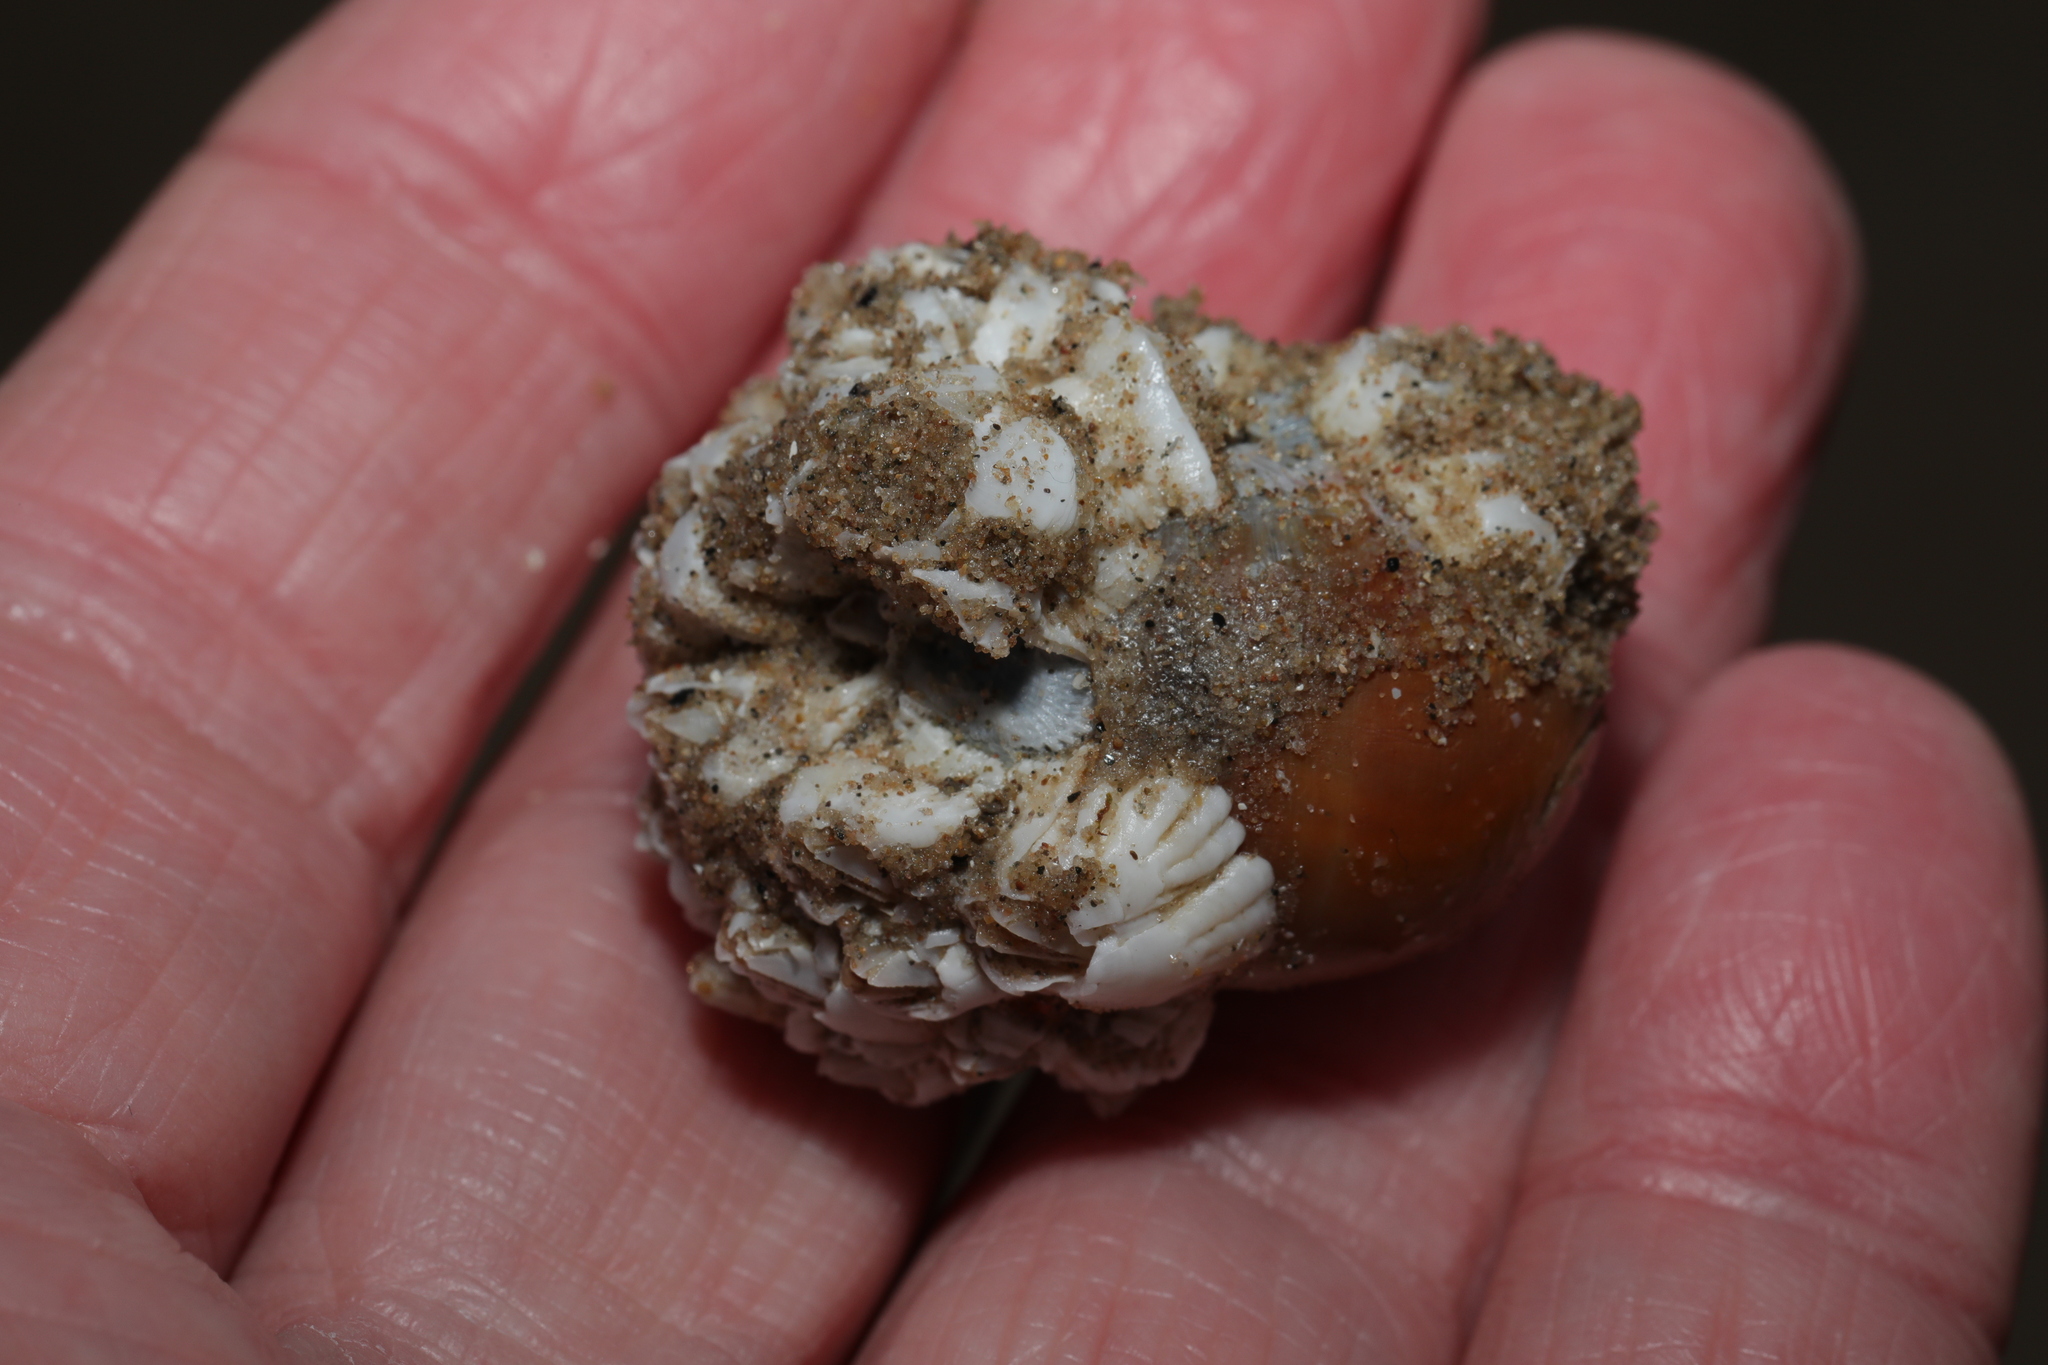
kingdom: Animalia
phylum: Mollusca
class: Gastropoda
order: Littorinimorpha
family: Naticidae
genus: Euspira
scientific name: Euspira catena
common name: Necklace shell
